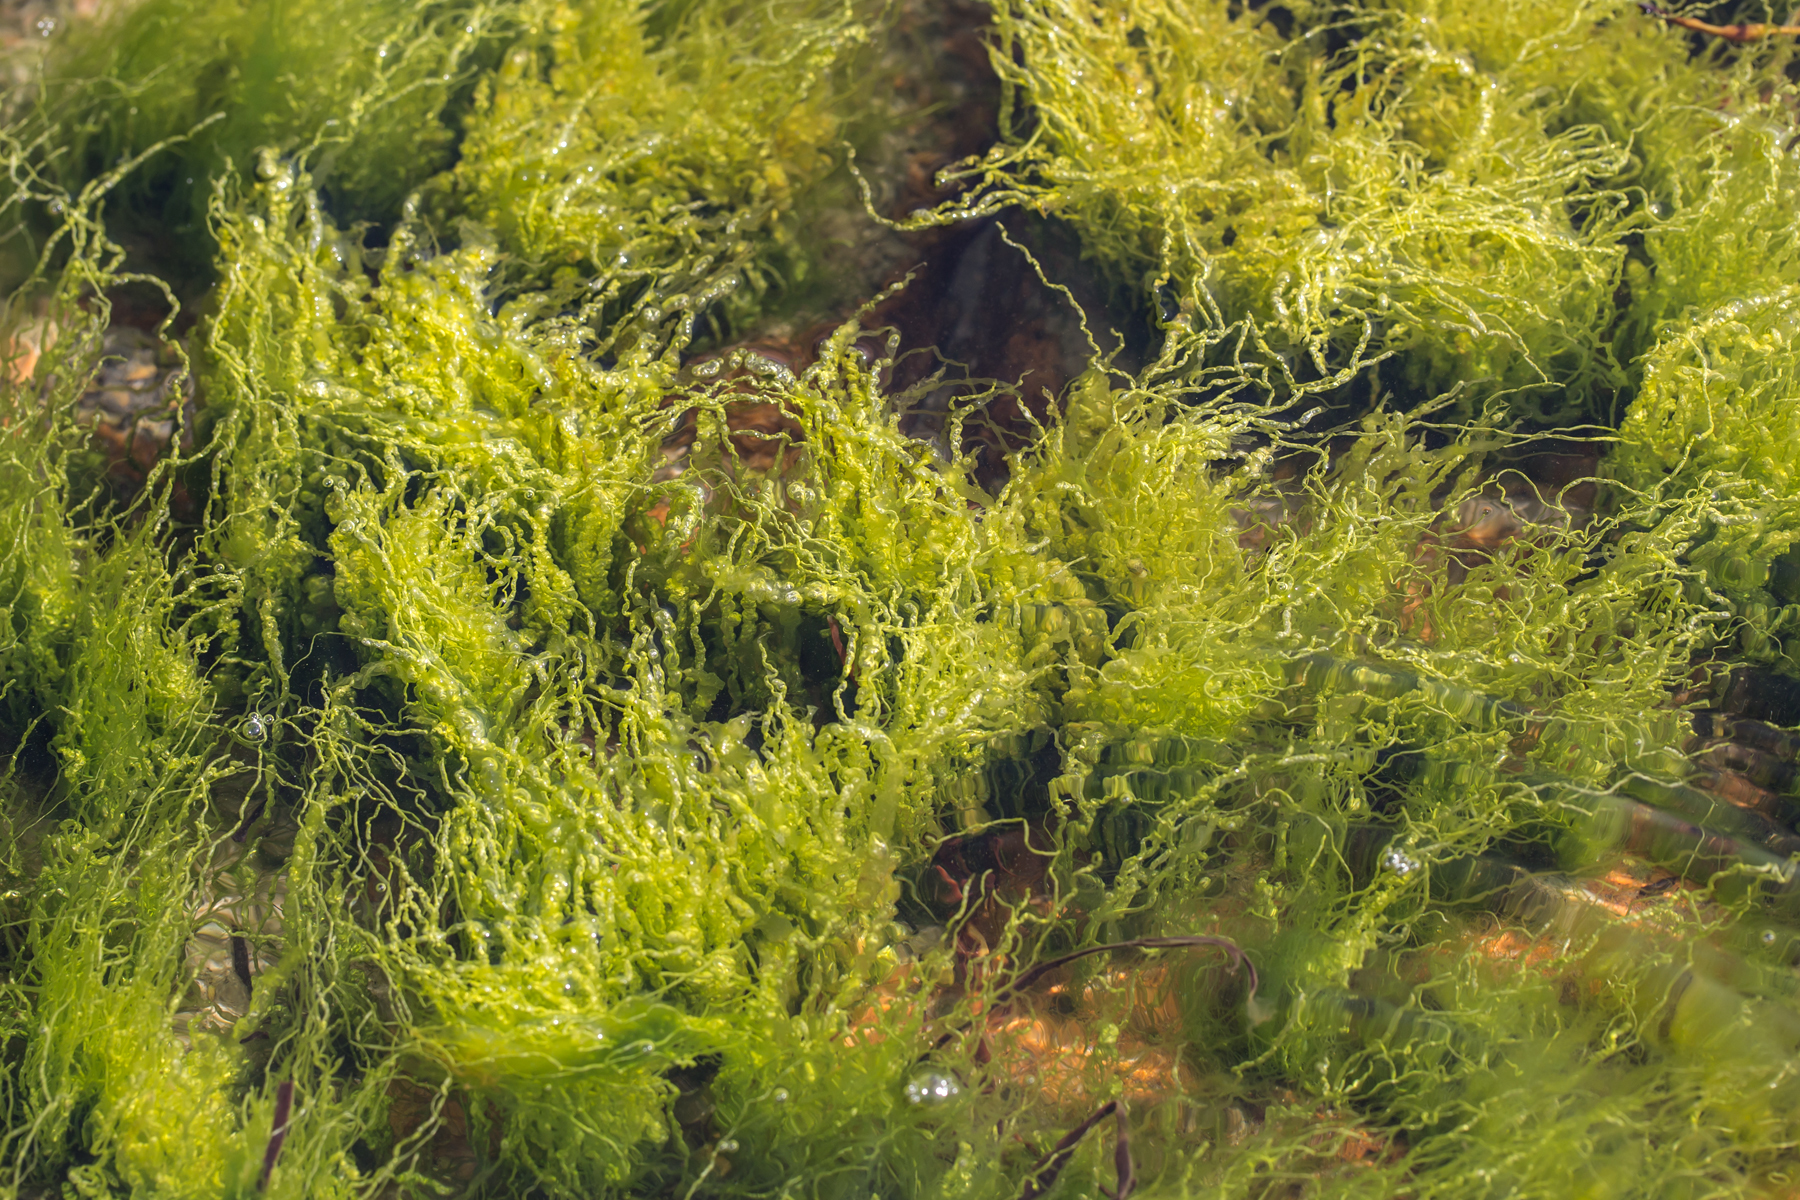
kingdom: Plantae
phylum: Chlorophyta
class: Ulvophyceae
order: Ulvales
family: Ulvaceae
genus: Ulva
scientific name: Ulva intestinalis
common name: Gut weed
